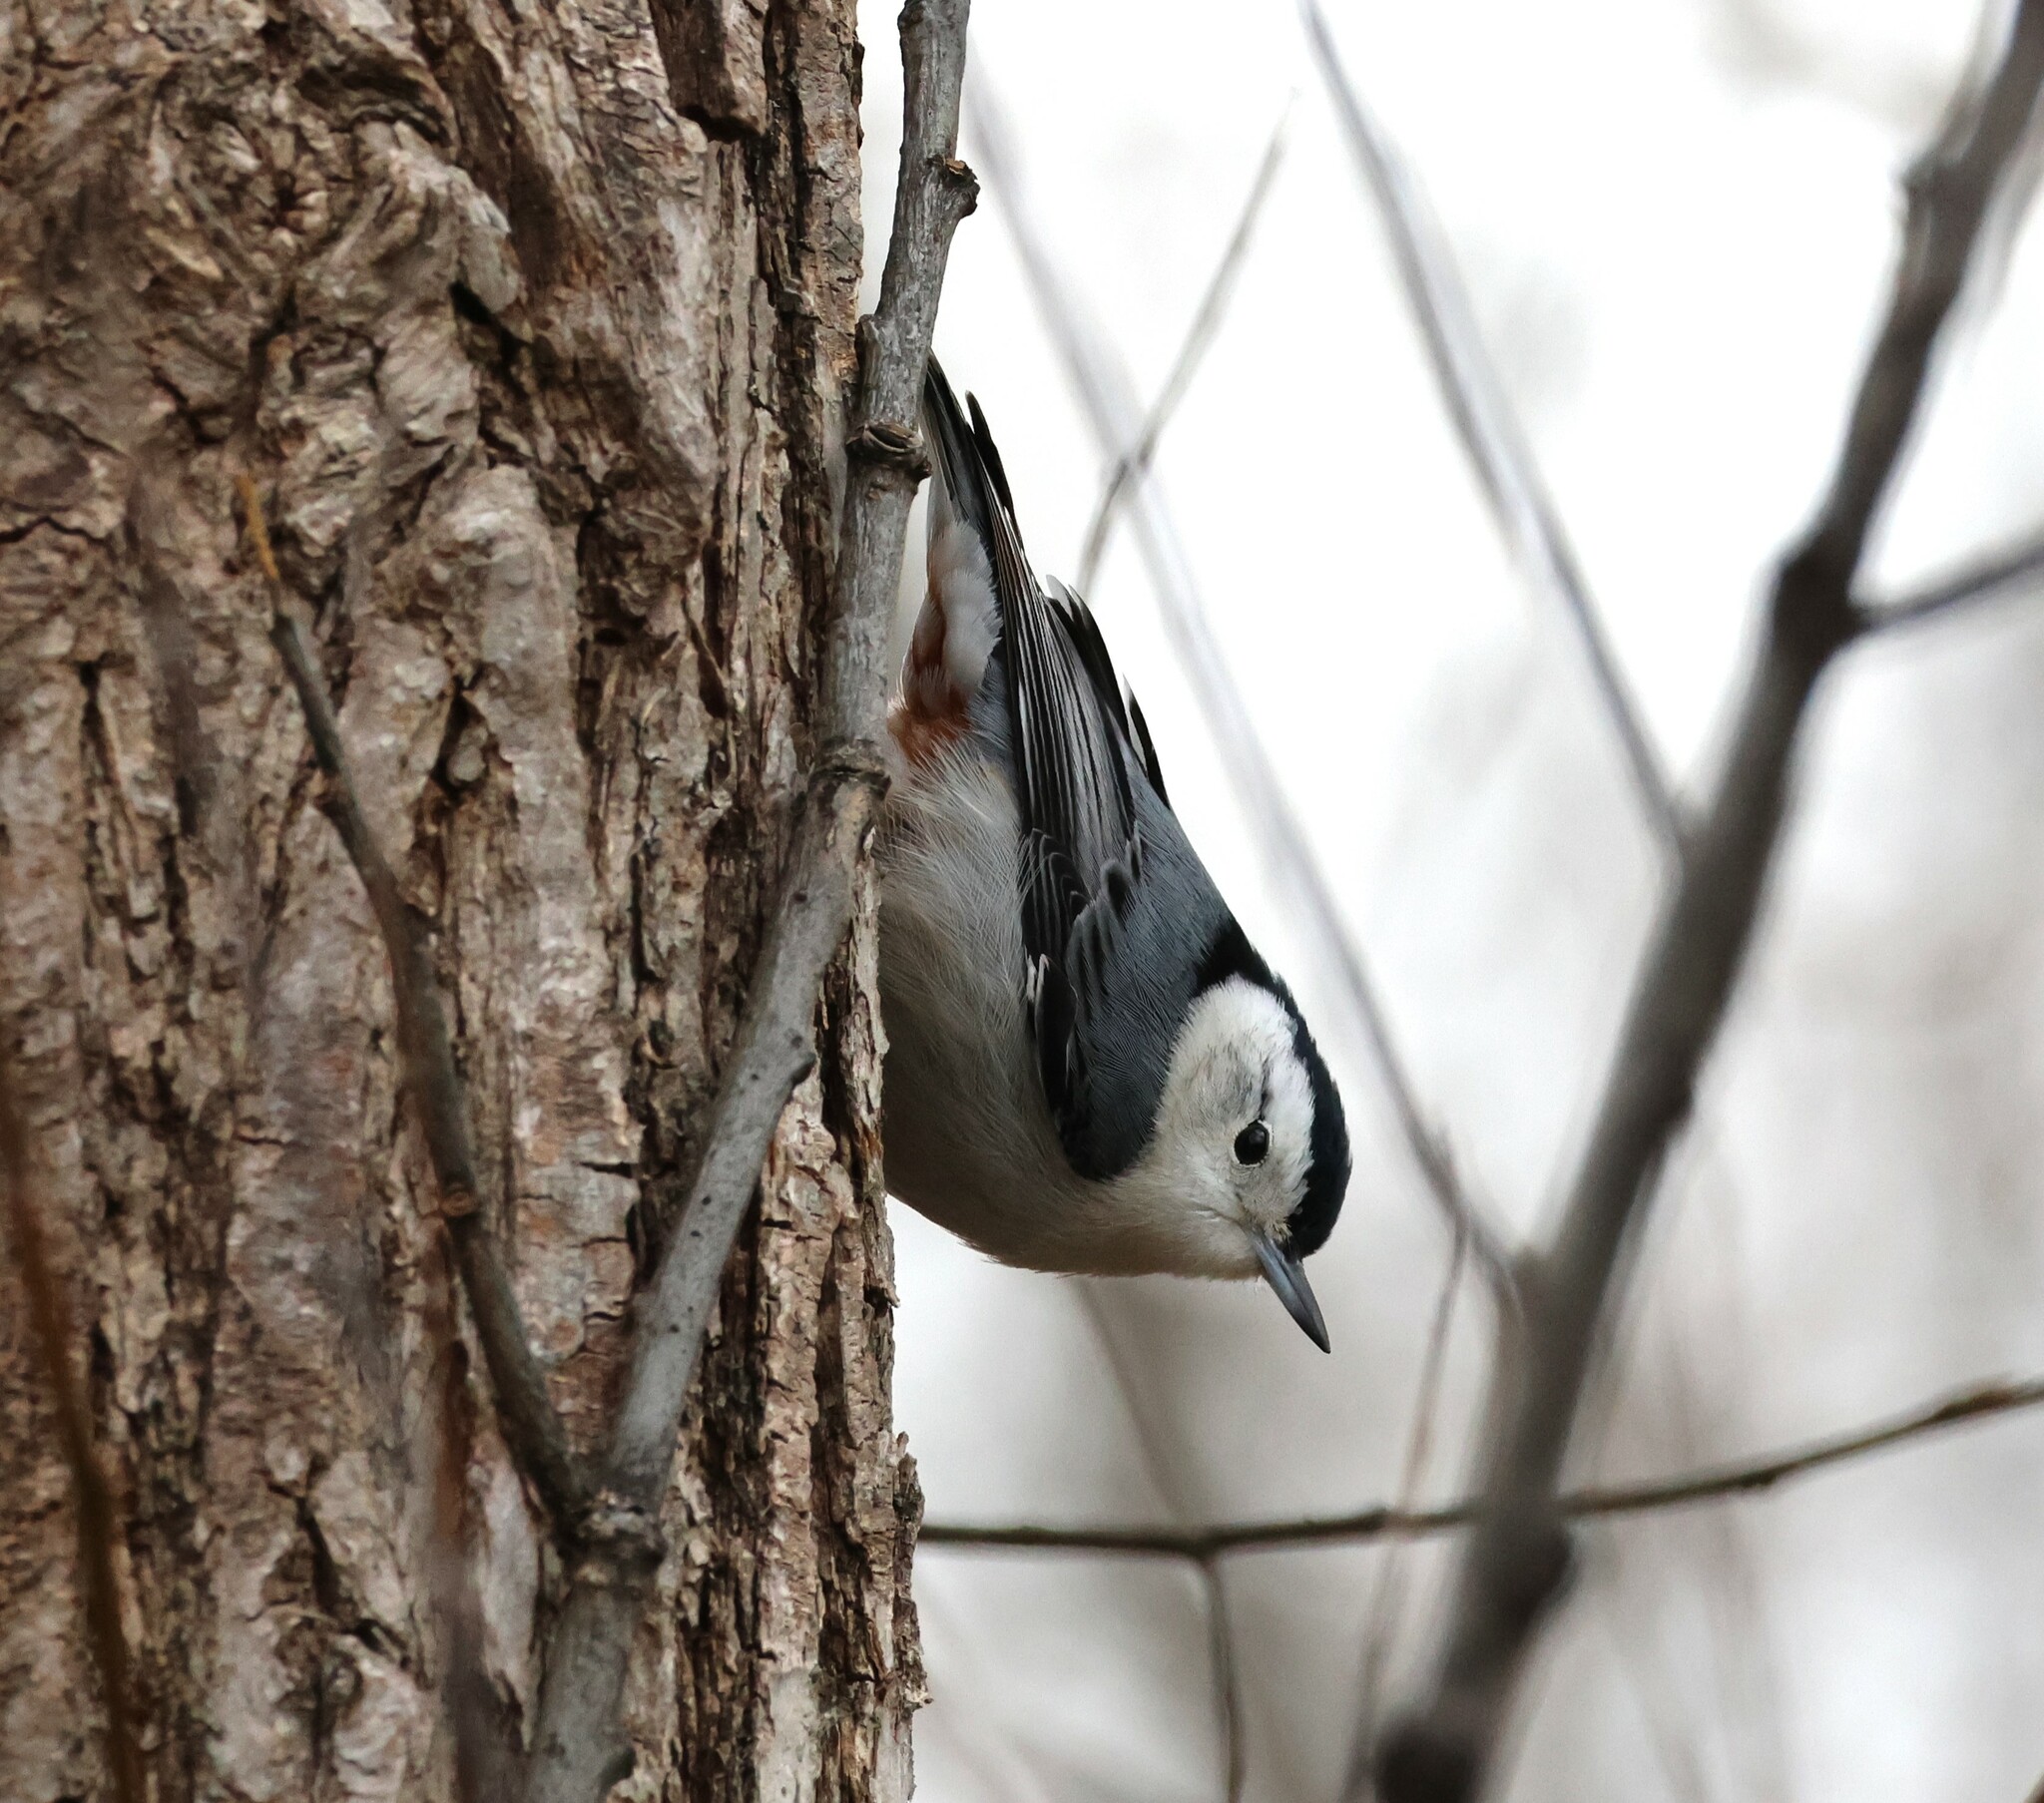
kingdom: Animalia
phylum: Chordata
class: Aves
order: Passeriformes
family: Sittidae
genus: Sitta
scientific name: Sitta carolinensis
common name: White-breasted nuthatch
